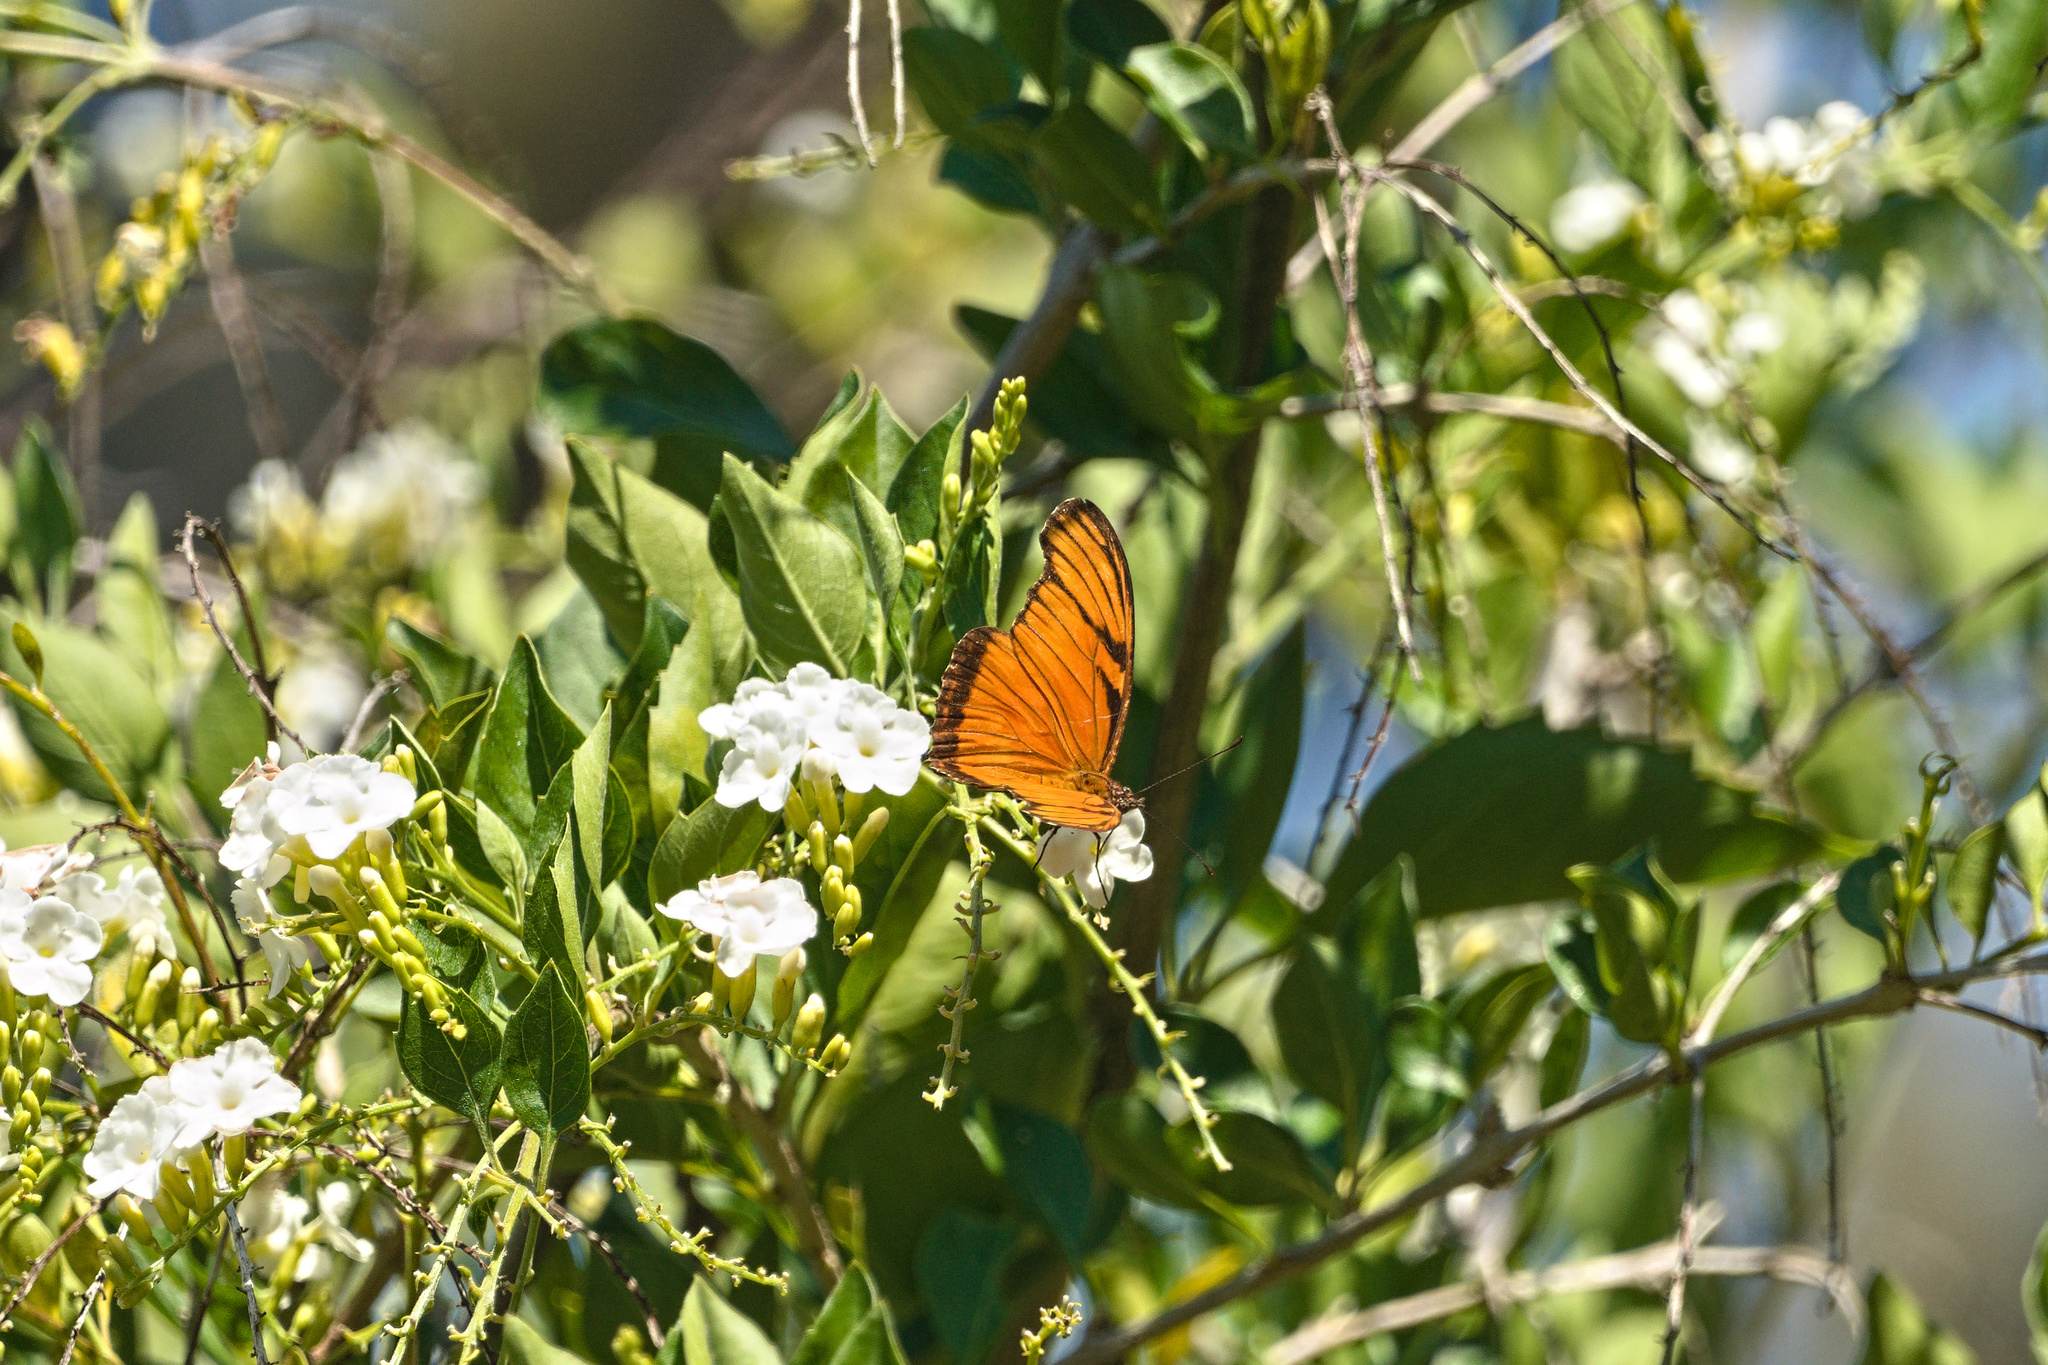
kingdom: Animalia
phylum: Arthropoda
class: Insecta
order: Lepidoptera
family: Nymphalidae
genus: Dione
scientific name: Dione juno
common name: Juno silverspot
